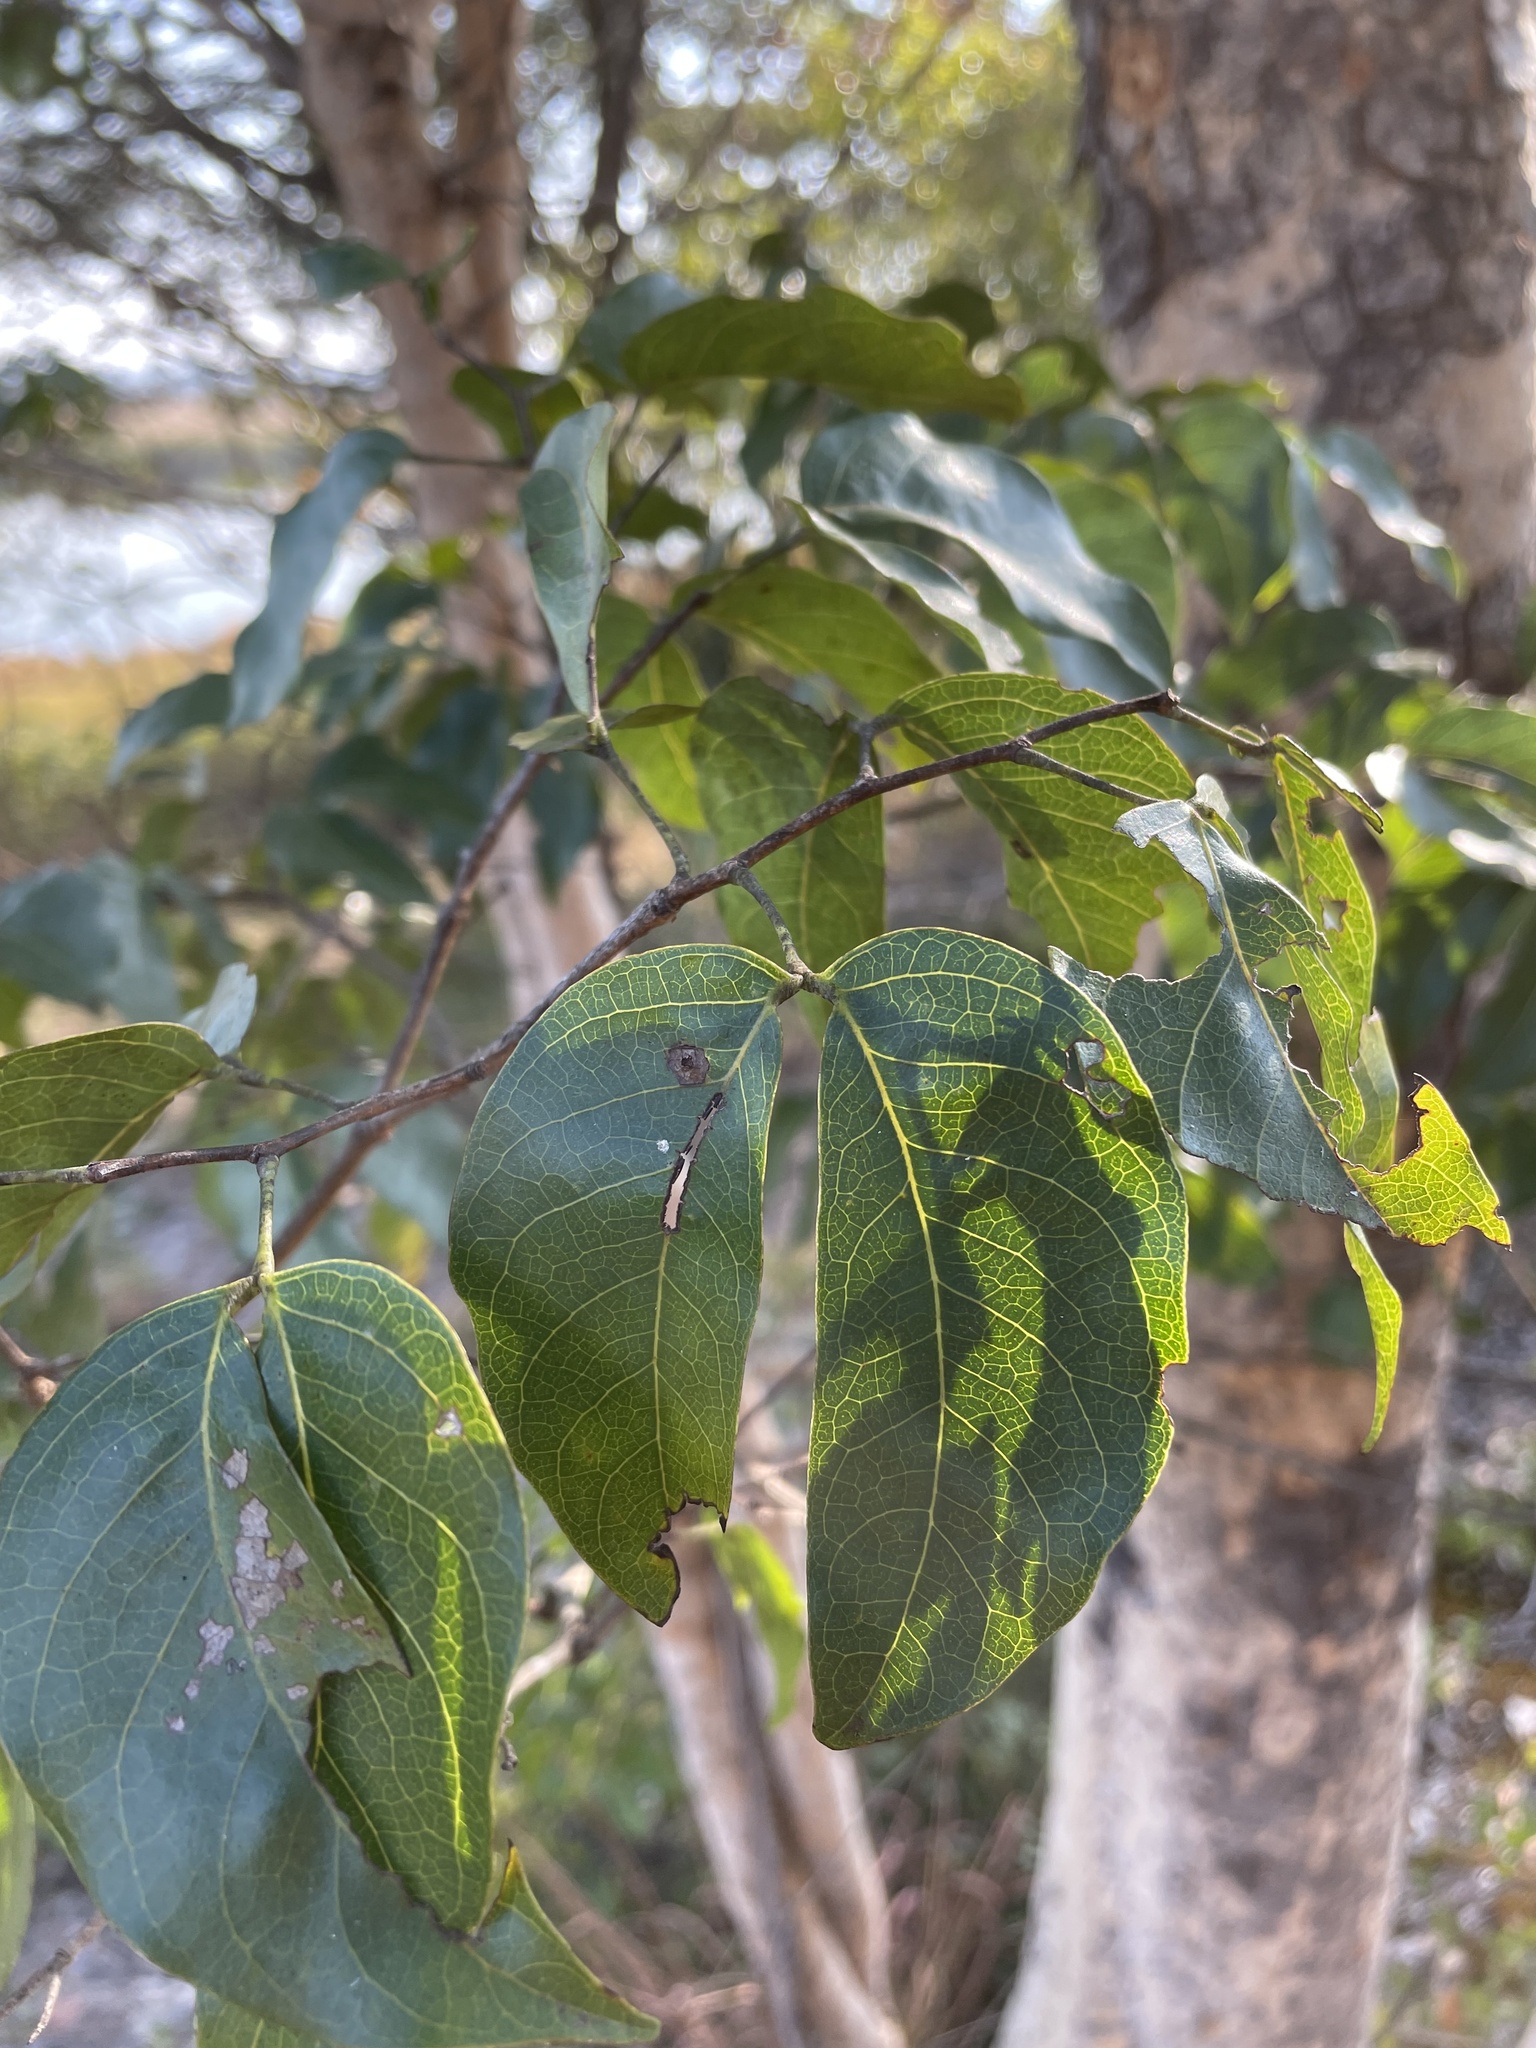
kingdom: Plantae
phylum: Tracheophyta
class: Magnoliopsida
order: Fabales
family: Fabaceae
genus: Guibourtia
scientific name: Guibourtia coleosperma
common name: African rosewoood
